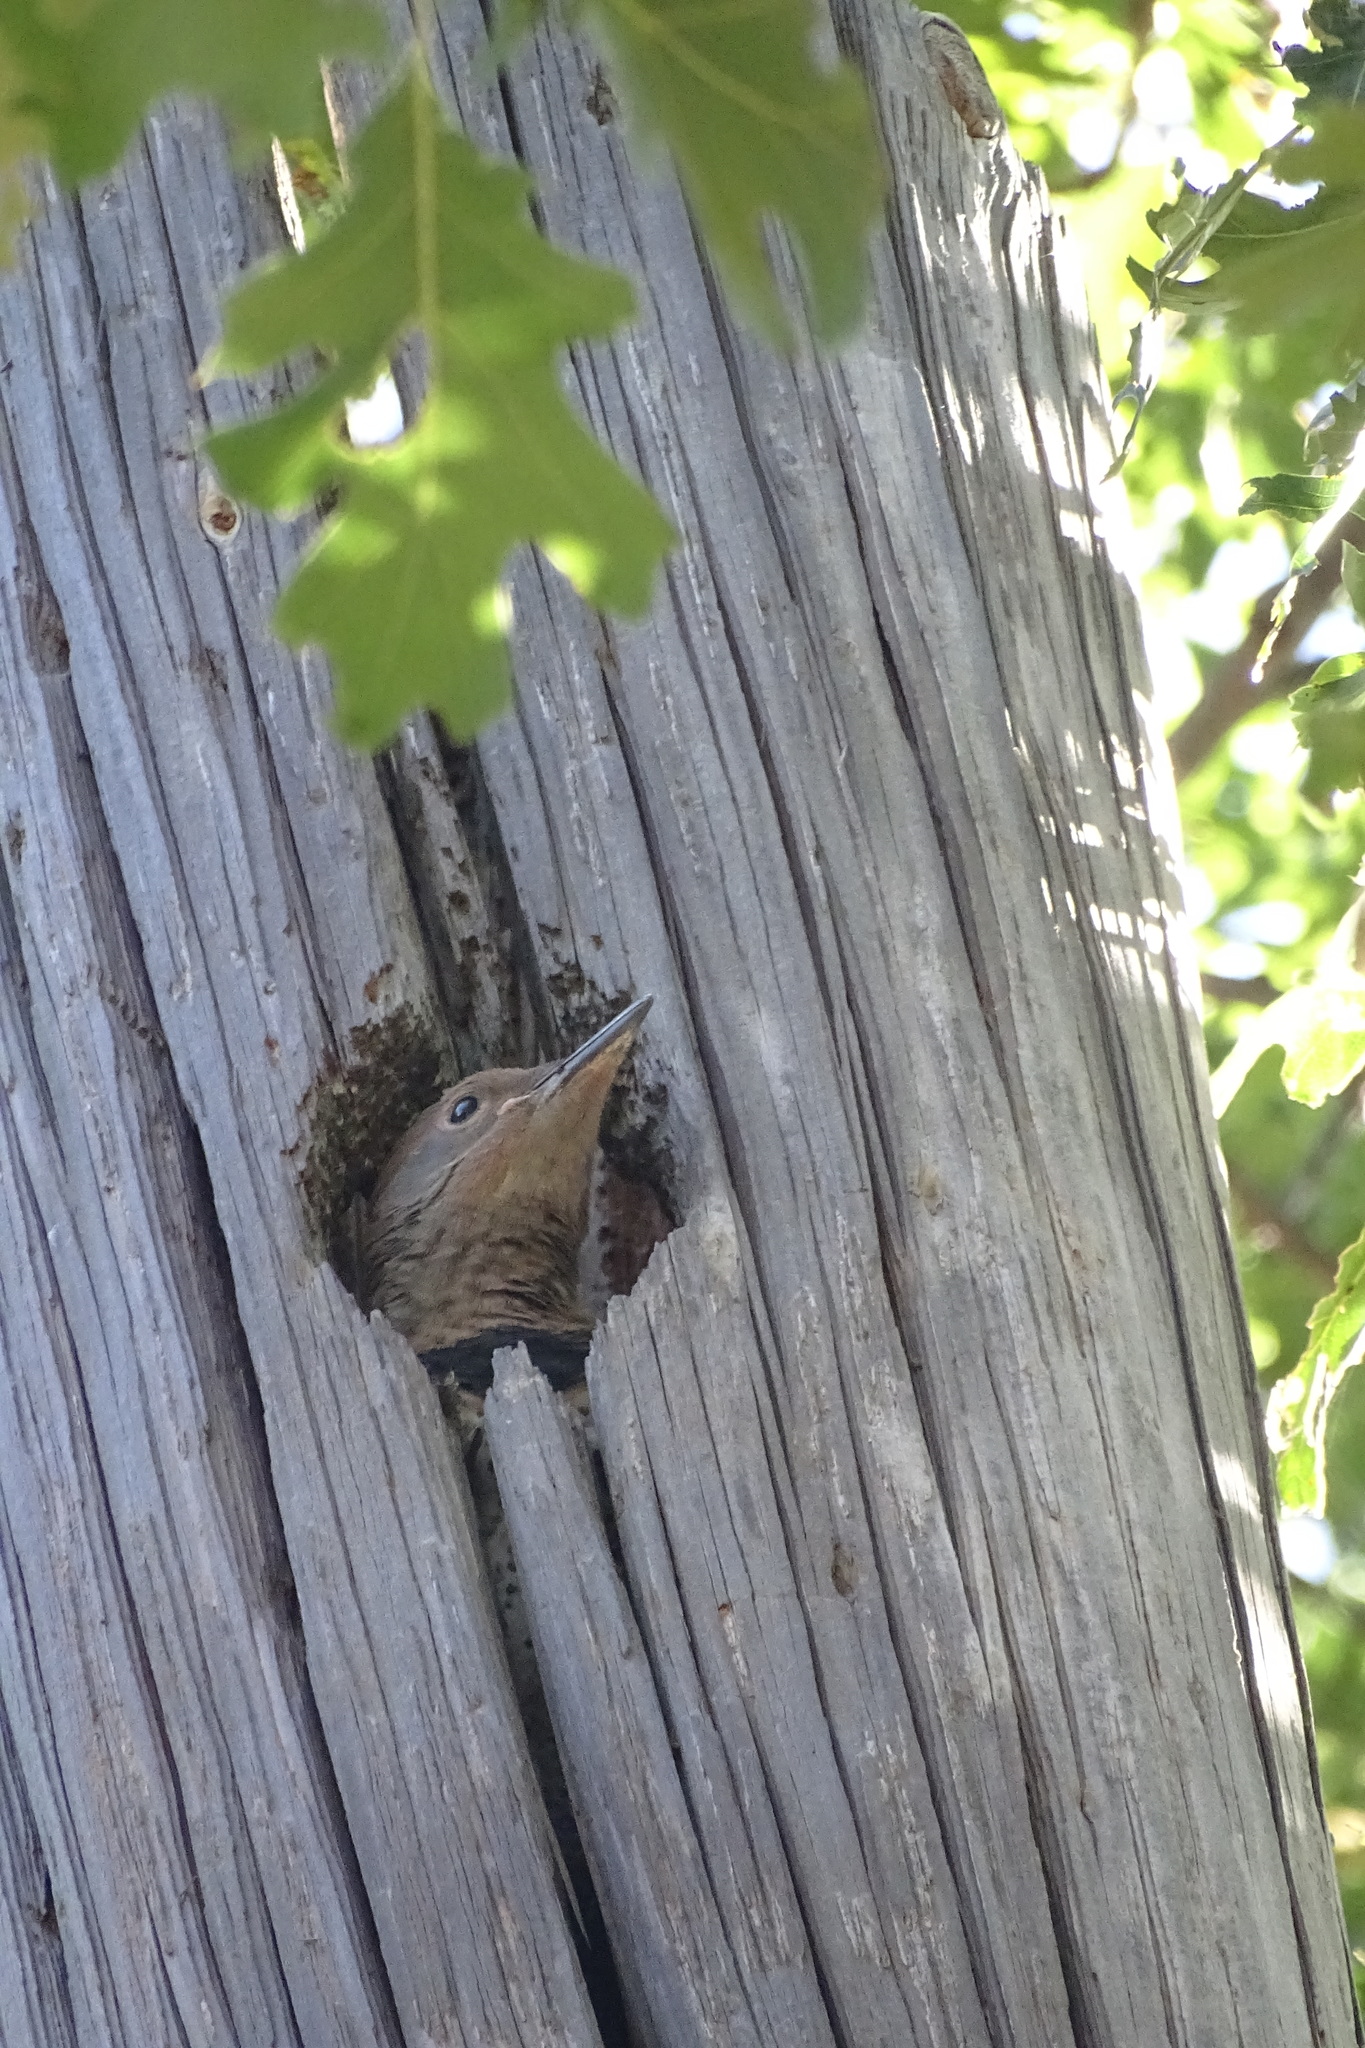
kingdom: Animalia
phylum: Chordata
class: Aves
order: Piciformes
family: Picidae
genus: Colaptes
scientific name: Colaptes auratus
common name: Northern flicker
